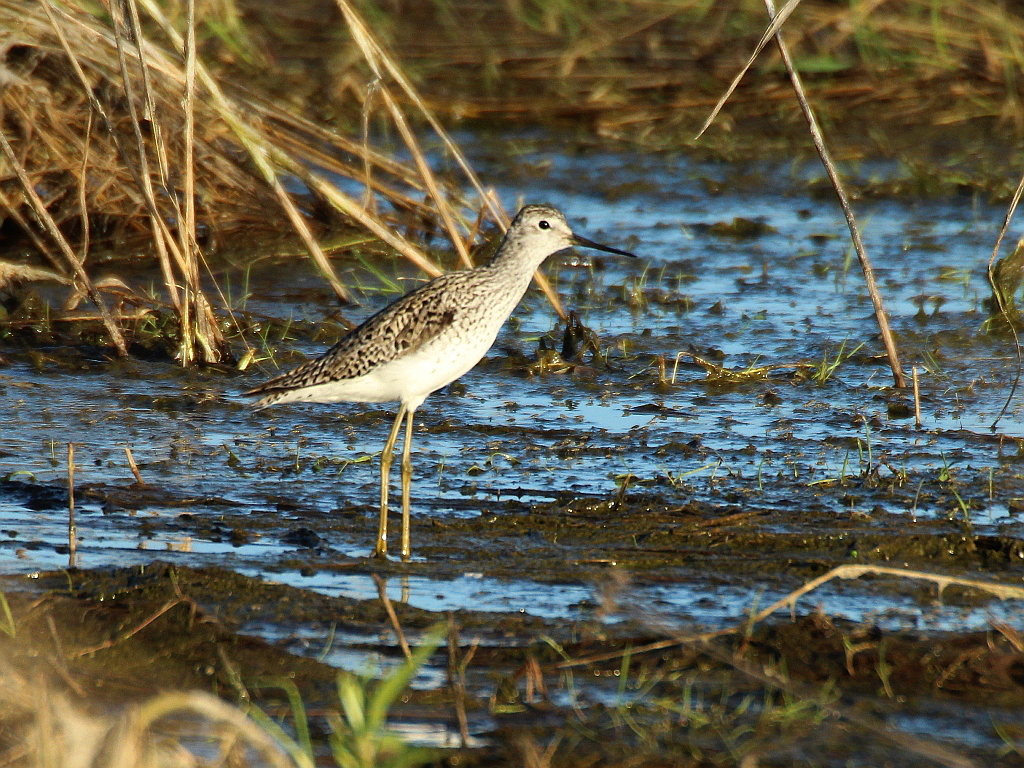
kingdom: Animalia
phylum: Chordata
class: Aves
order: Charadriiformes
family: Scolopacidae
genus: Tringa
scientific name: Tringa stagnatilis
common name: Marsh sandpiper
